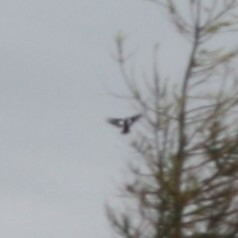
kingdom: Animalia
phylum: Chordata
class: Aves
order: Piciformes
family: Picidae
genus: Dendrocopos
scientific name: Dendrocopos major
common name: Great spotted woodpecker
